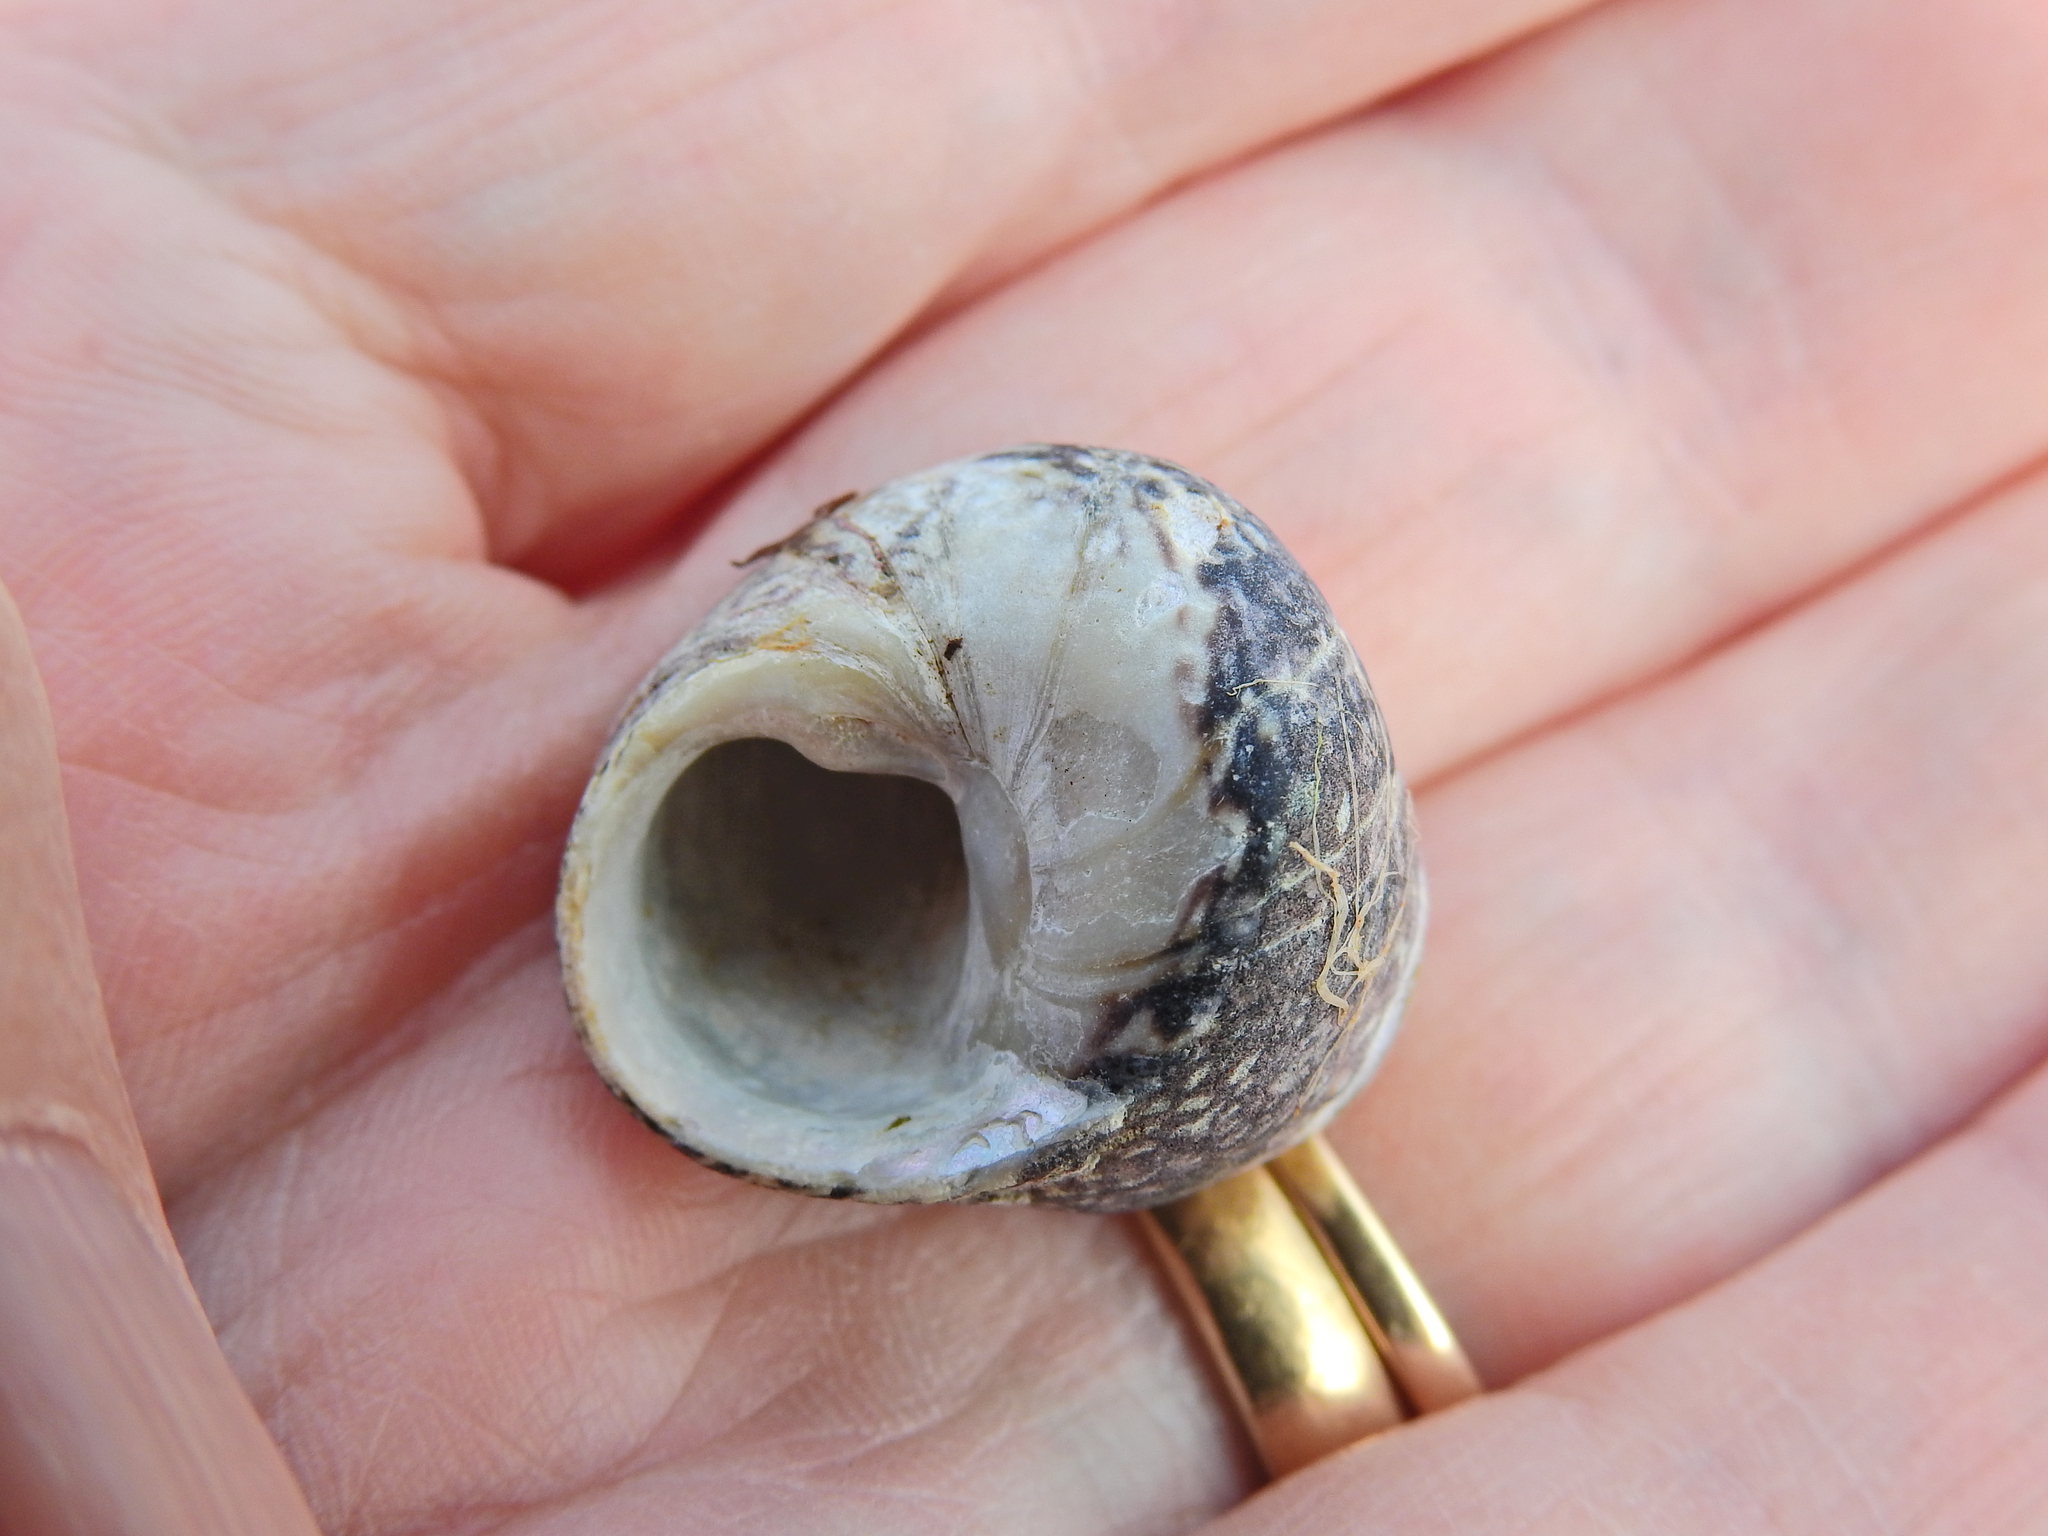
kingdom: Animalia
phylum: Mollusca
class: Gastropoda
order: Trochida
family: Trochidae
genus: Phorcus
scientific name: Phorcus lineatus
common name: Toothed top shell
